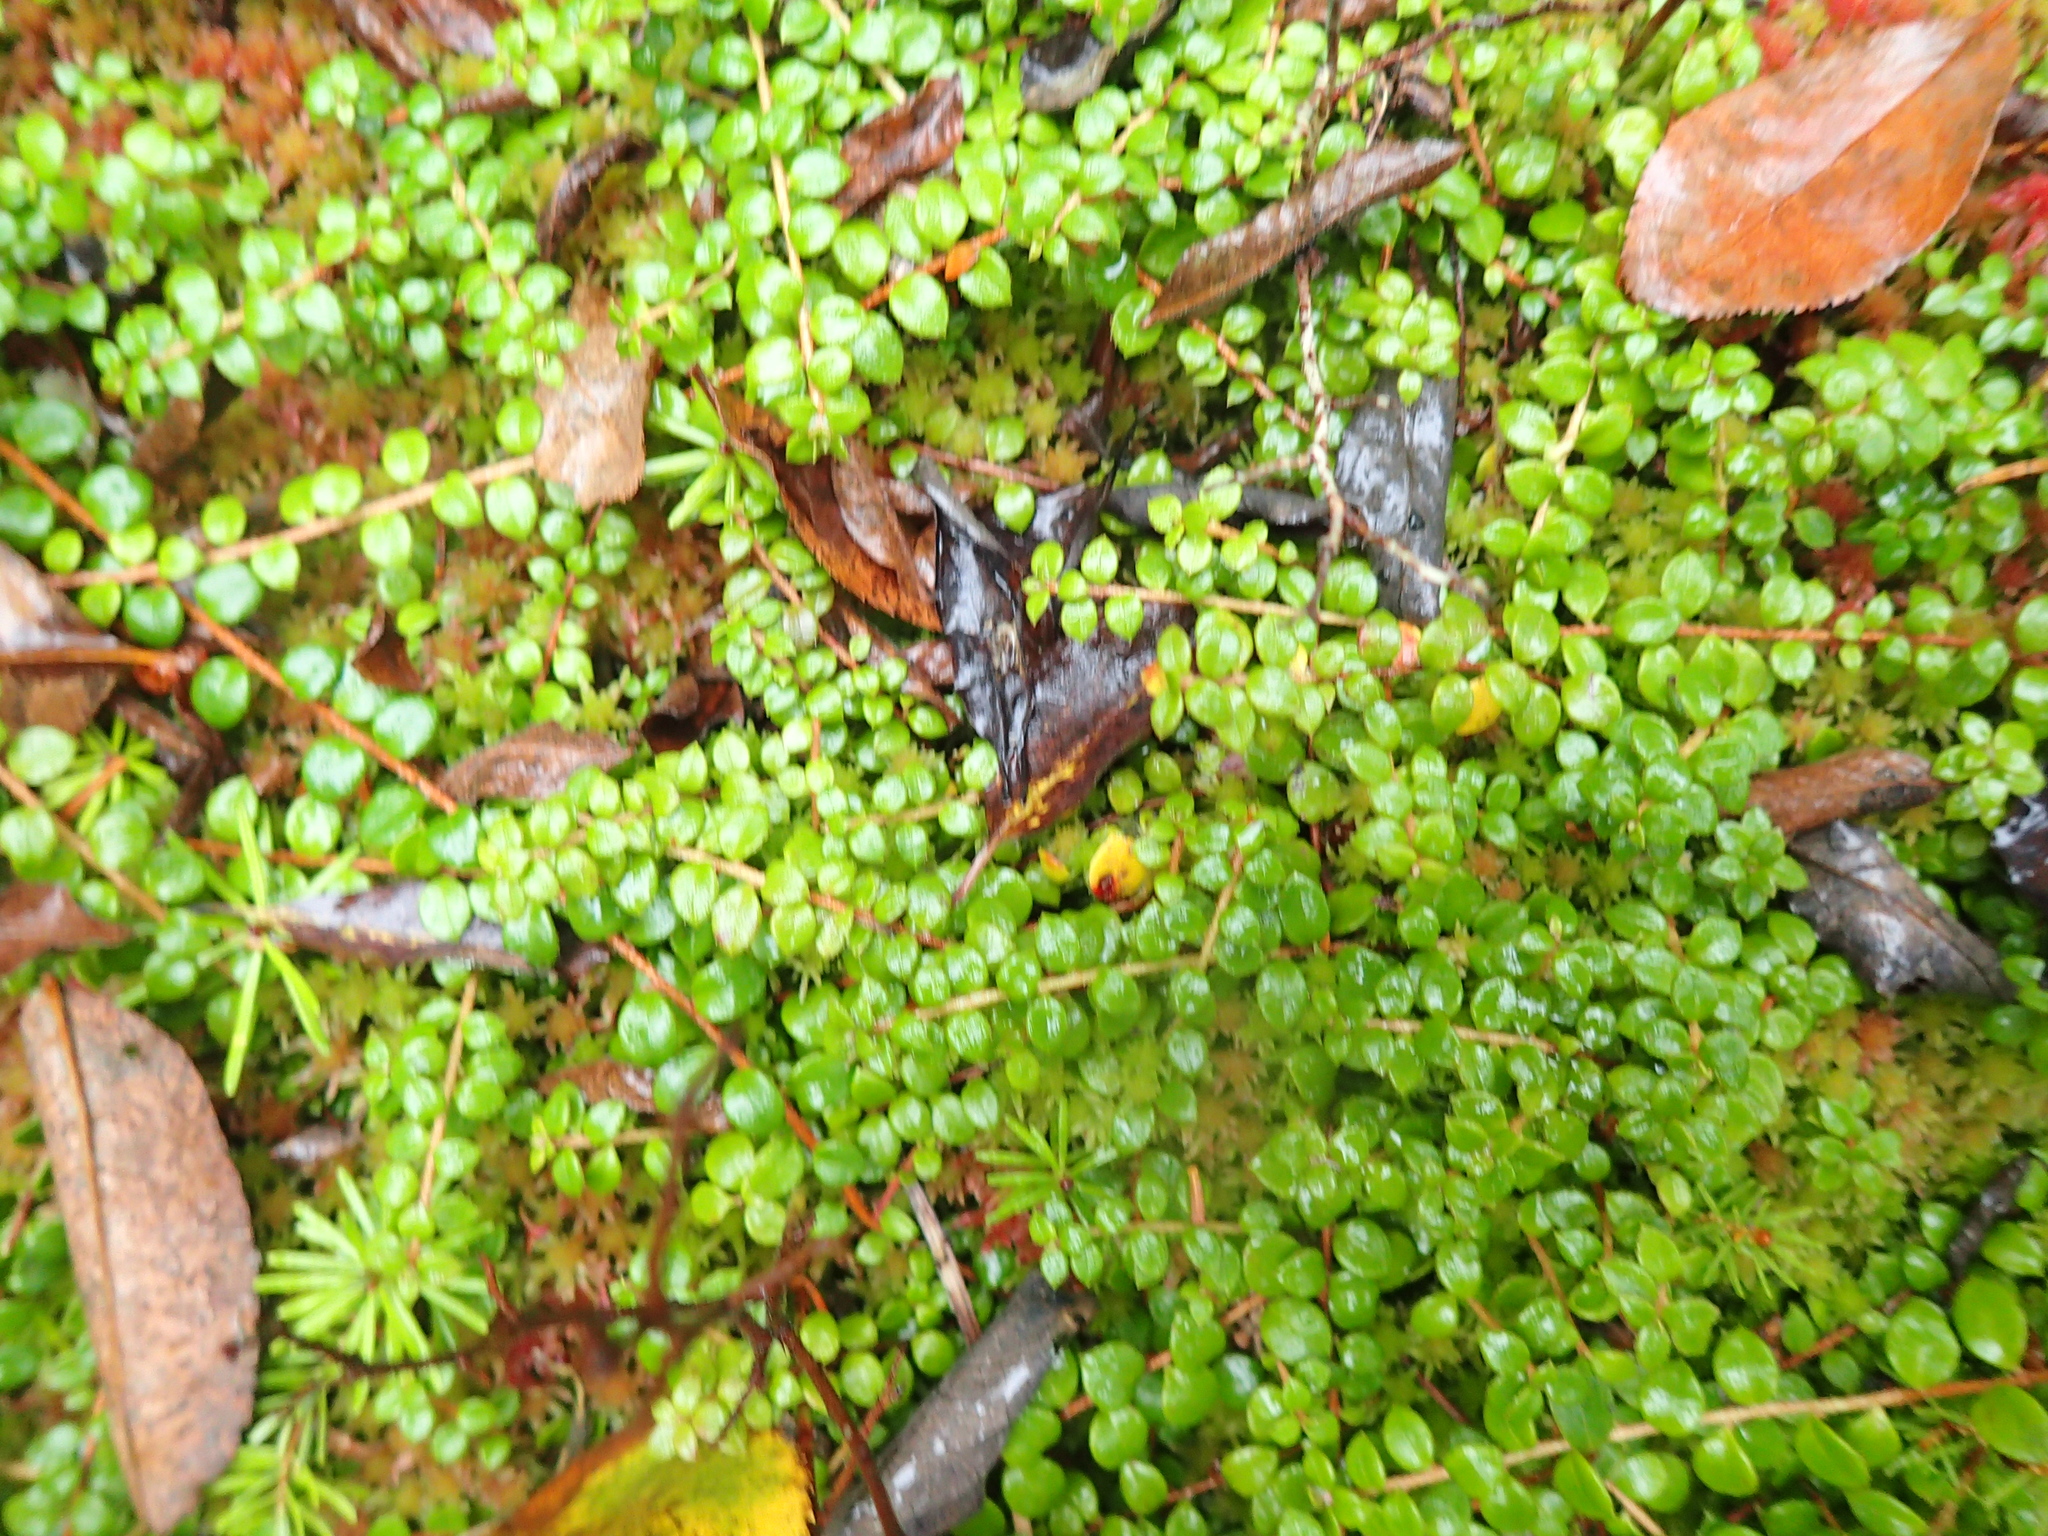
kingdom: Plantae
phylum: Tracheophyta
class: Magnoliopsida
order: Ericales
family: Ericaceae
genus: Gaultheria
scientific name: Gaultheria hispidula
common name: Cancer wintergreen
